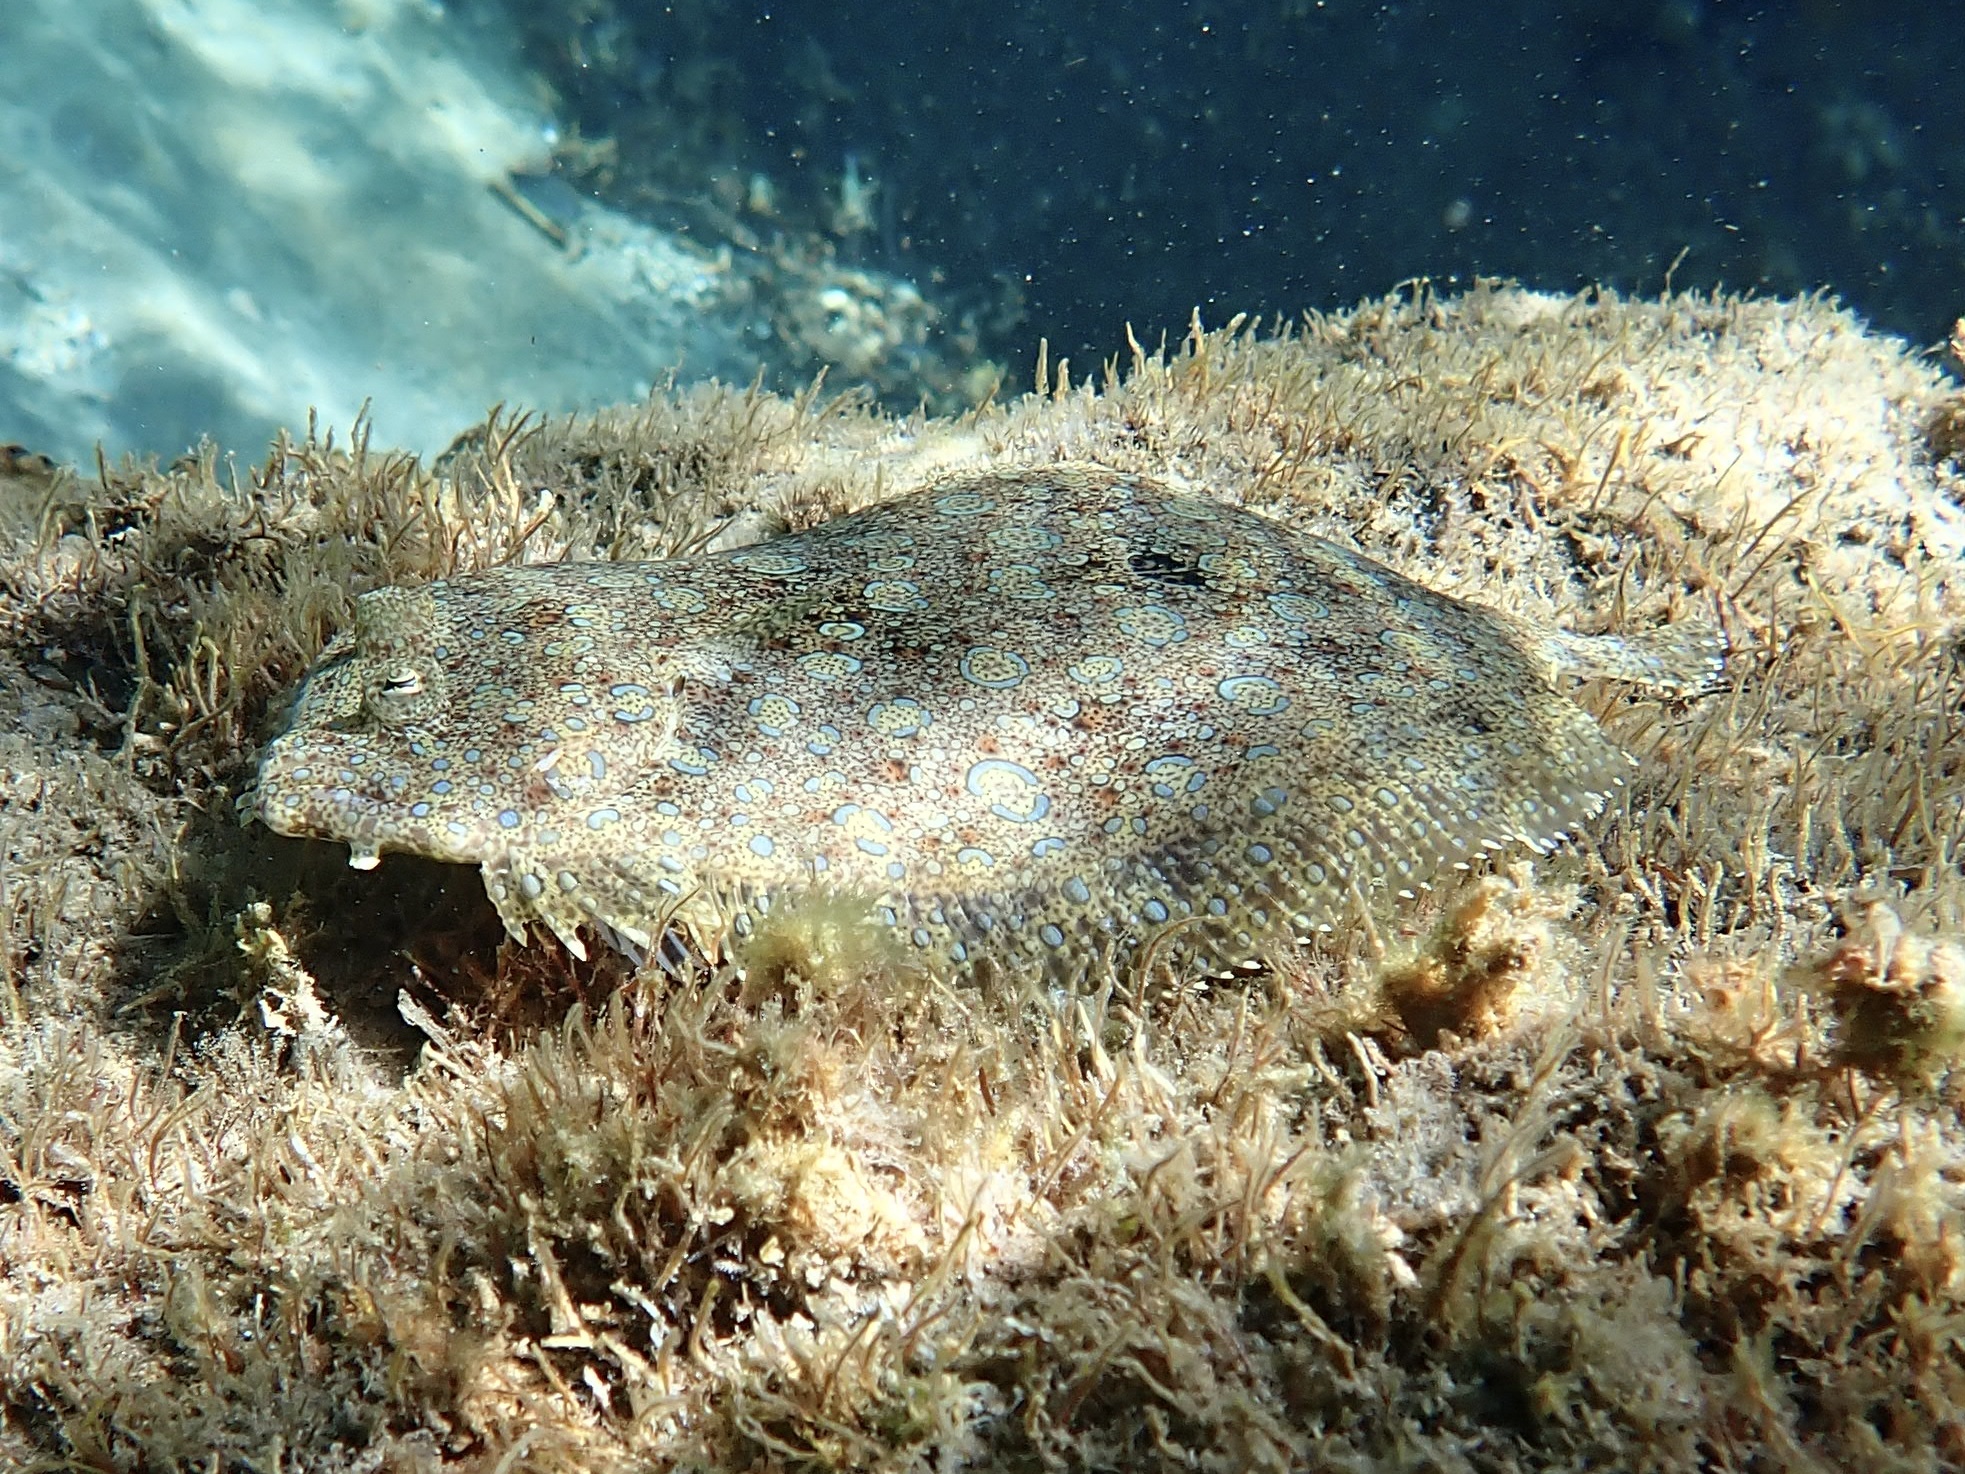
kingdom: Animalia
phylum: Chordata
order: Pleuronectiformes
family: Bothidae
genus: Bothus
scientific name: Bothus lunatus
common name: Peacock flounder
